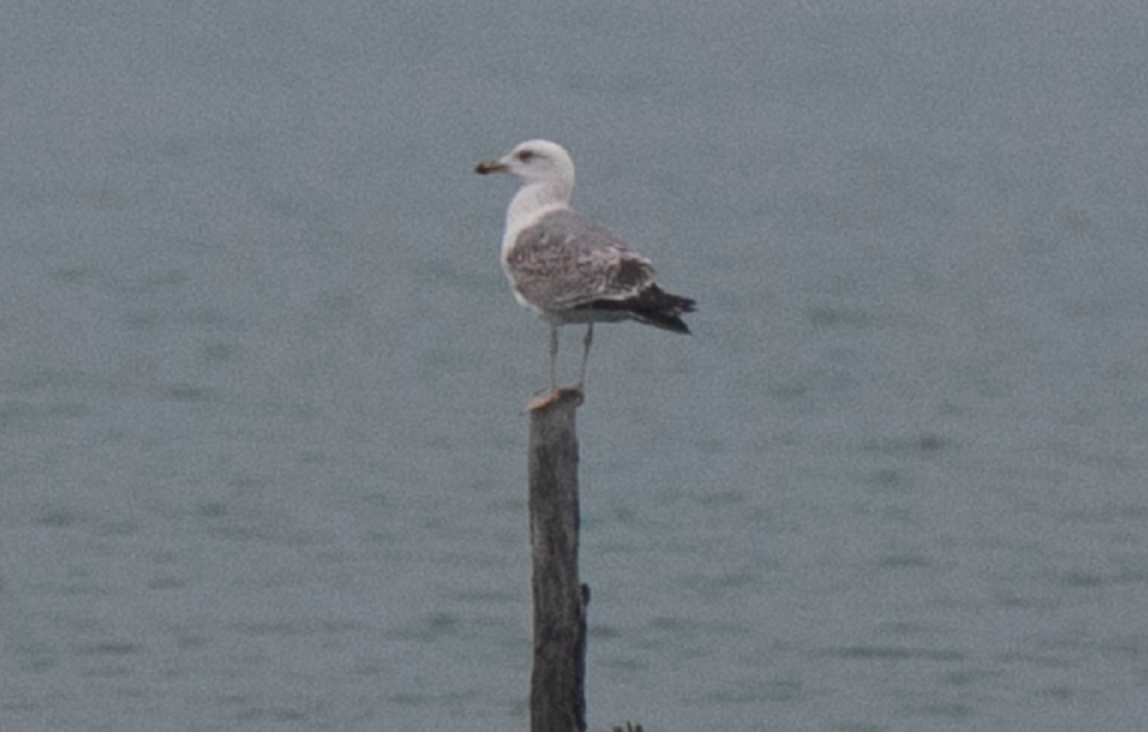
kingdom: Animalia
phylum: Chordata
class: Aves
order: Charadriiformes
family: Laridae
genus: Larus
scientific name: Larus michahellis
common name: Yellow-legged gull
